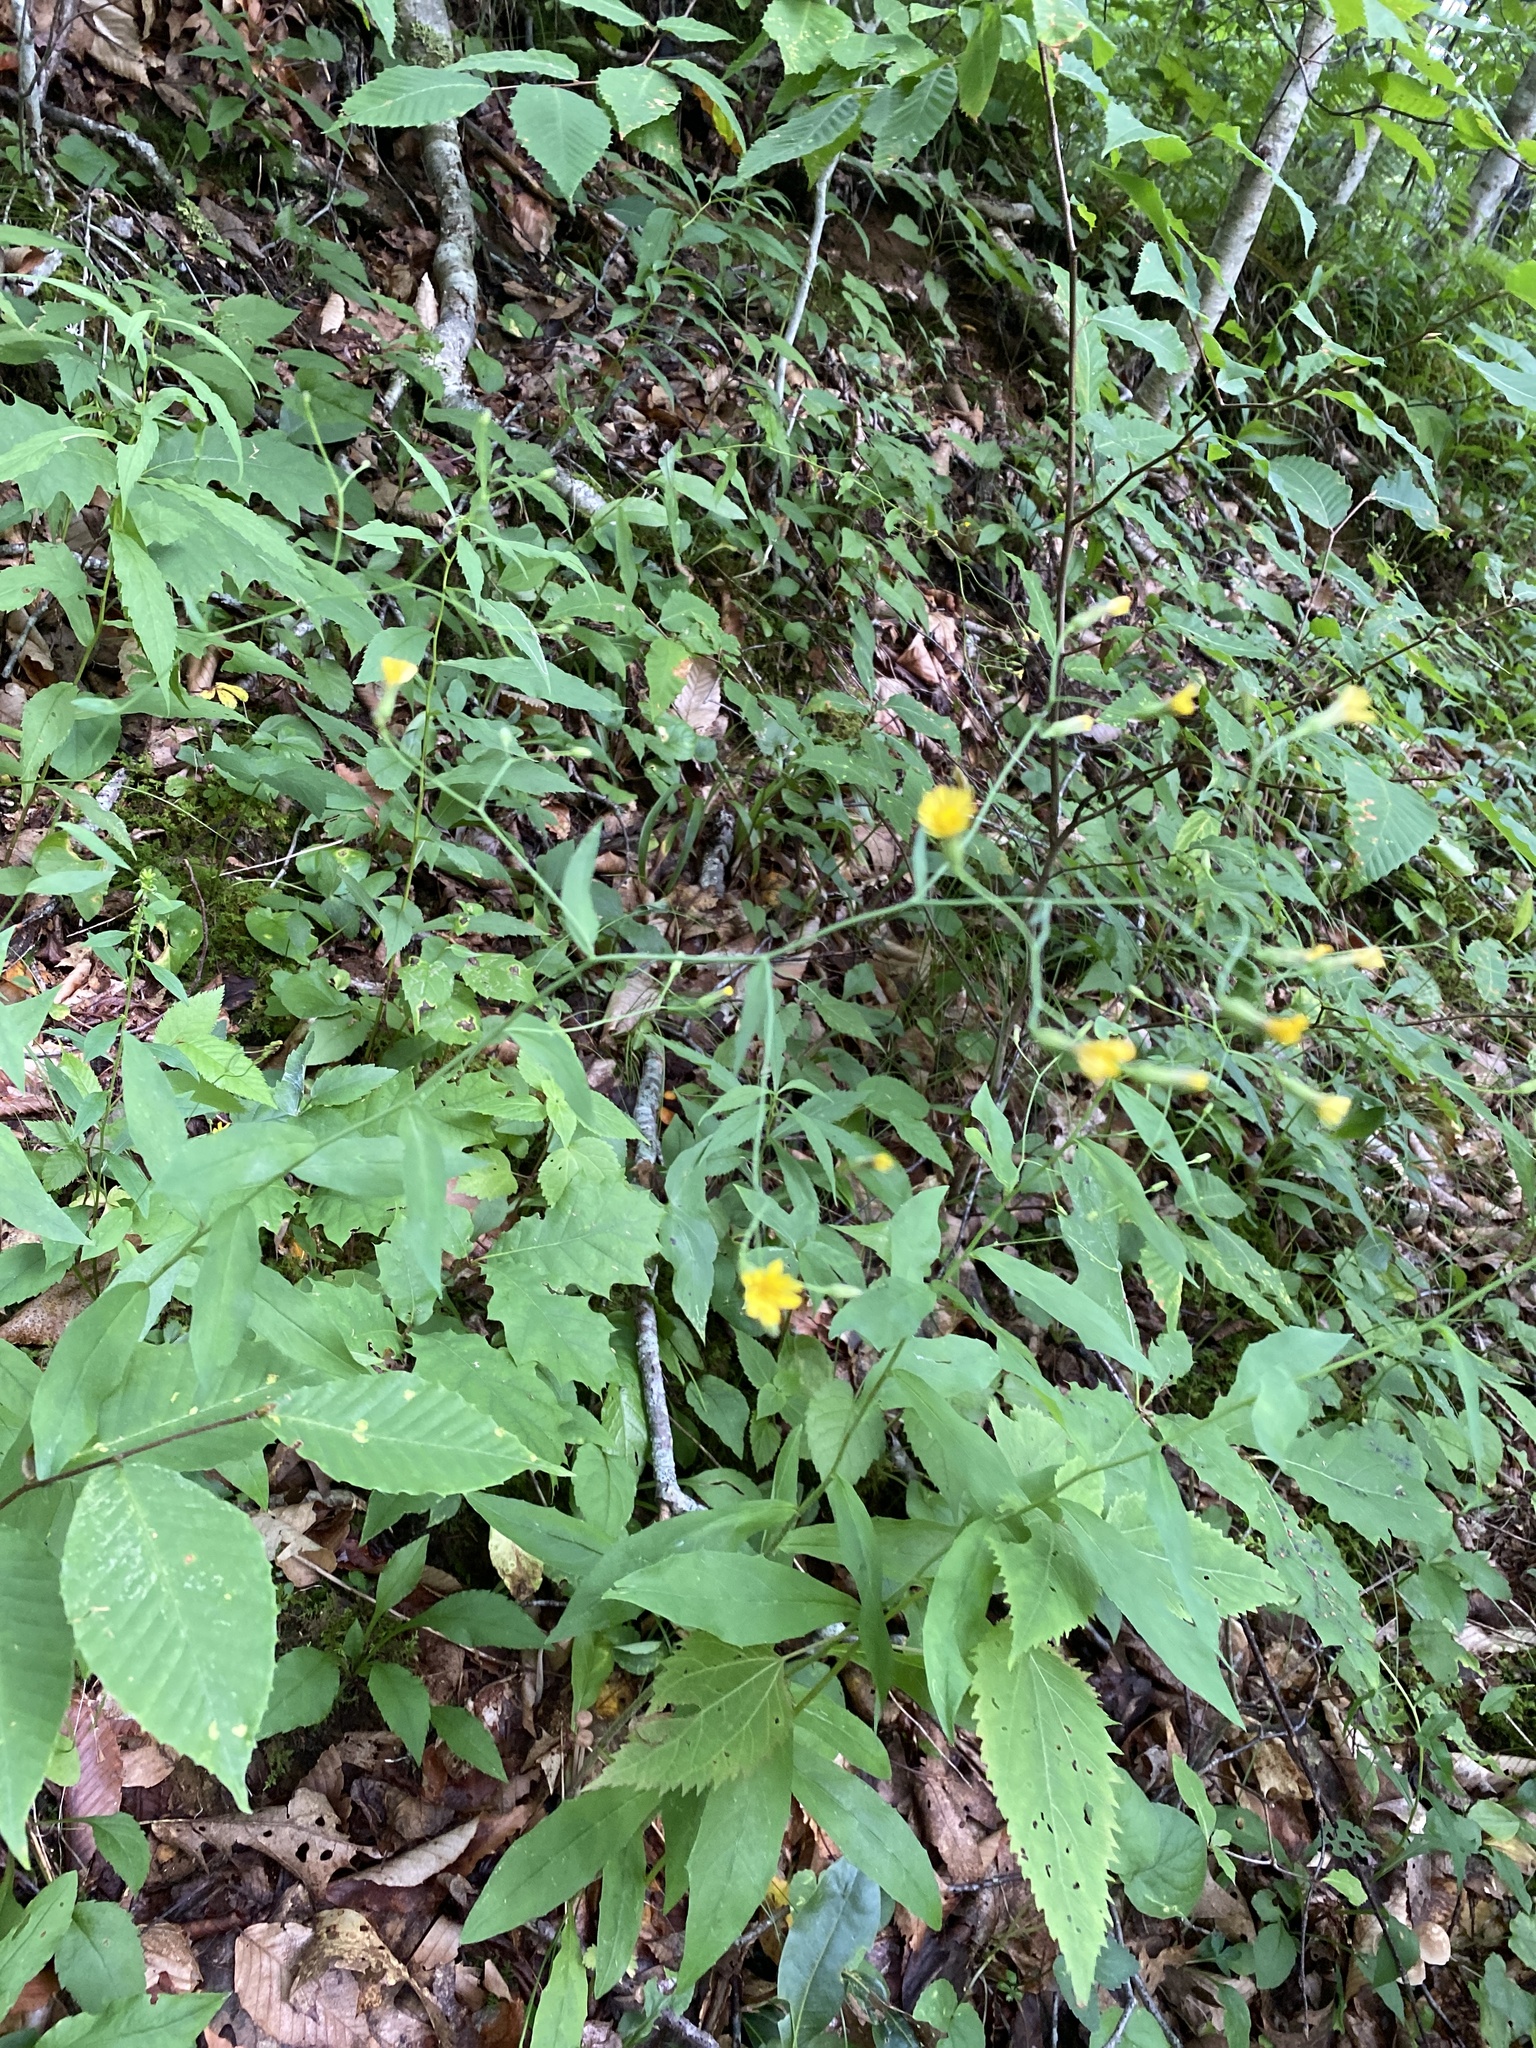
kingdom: Plantae
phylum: Tracheophyta
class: Magnoliopsida
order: Asterales
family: Asteraceae
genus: Hieracium
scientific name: Hieracium paniculatum
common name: Allegheny hawkweed
